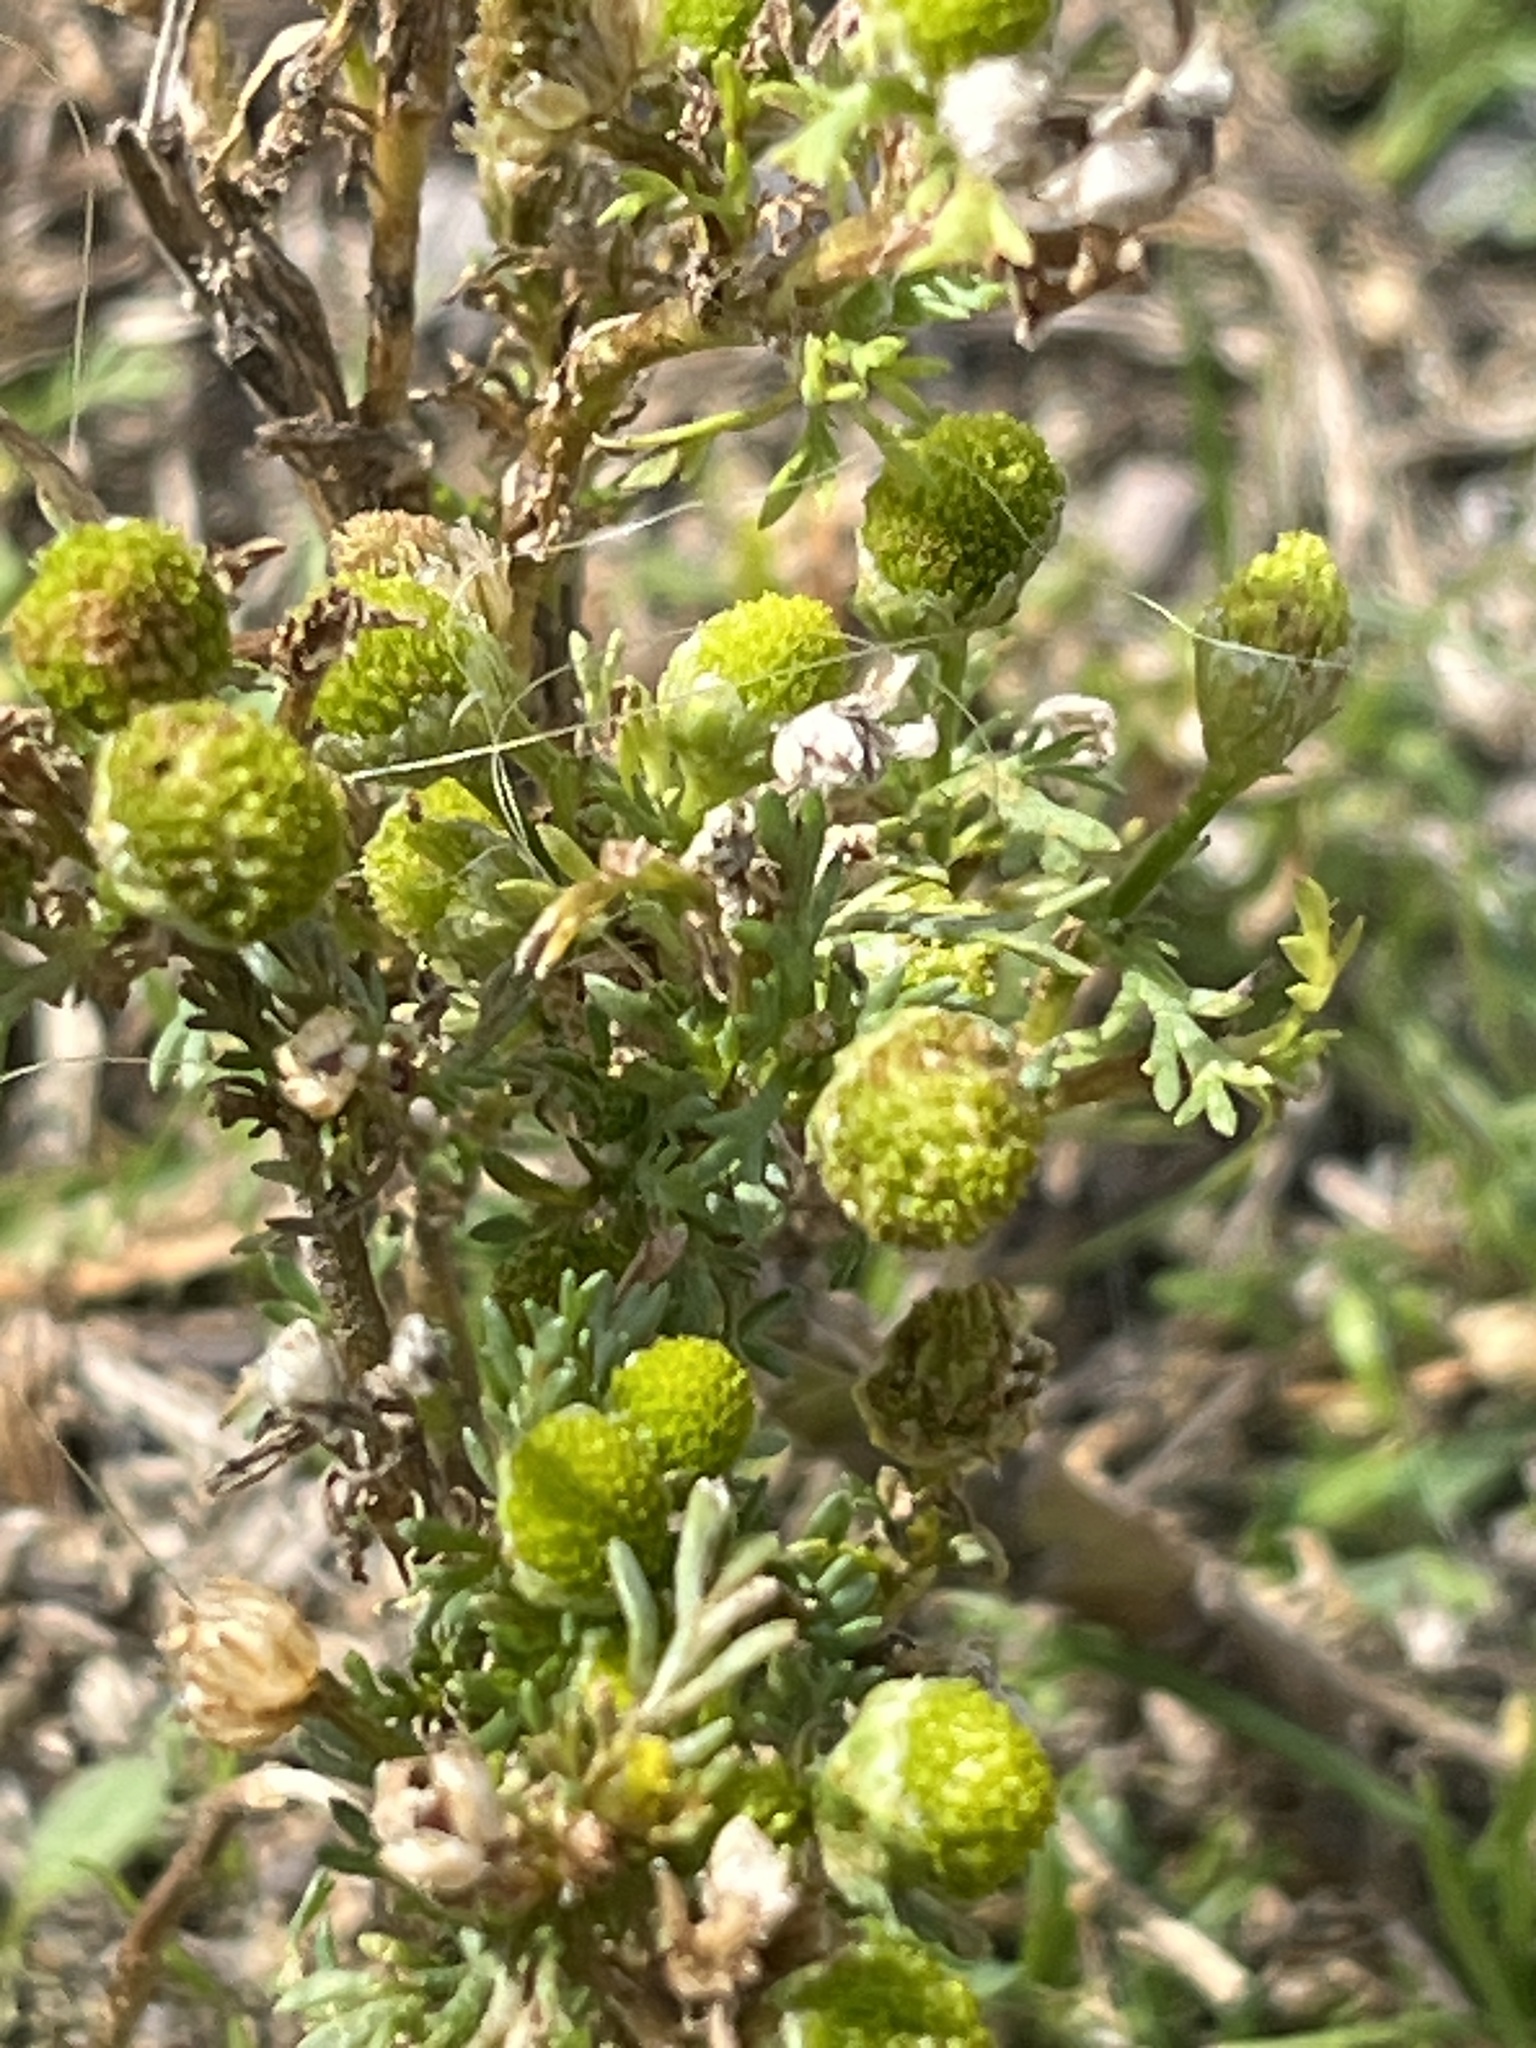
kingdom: Plantae
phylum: Tracheophyta
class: Magnoliopsida
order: Asterales
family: Asteraceae
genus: Matricaria
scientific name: Matricaria discoidea
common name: Disc mayweed
